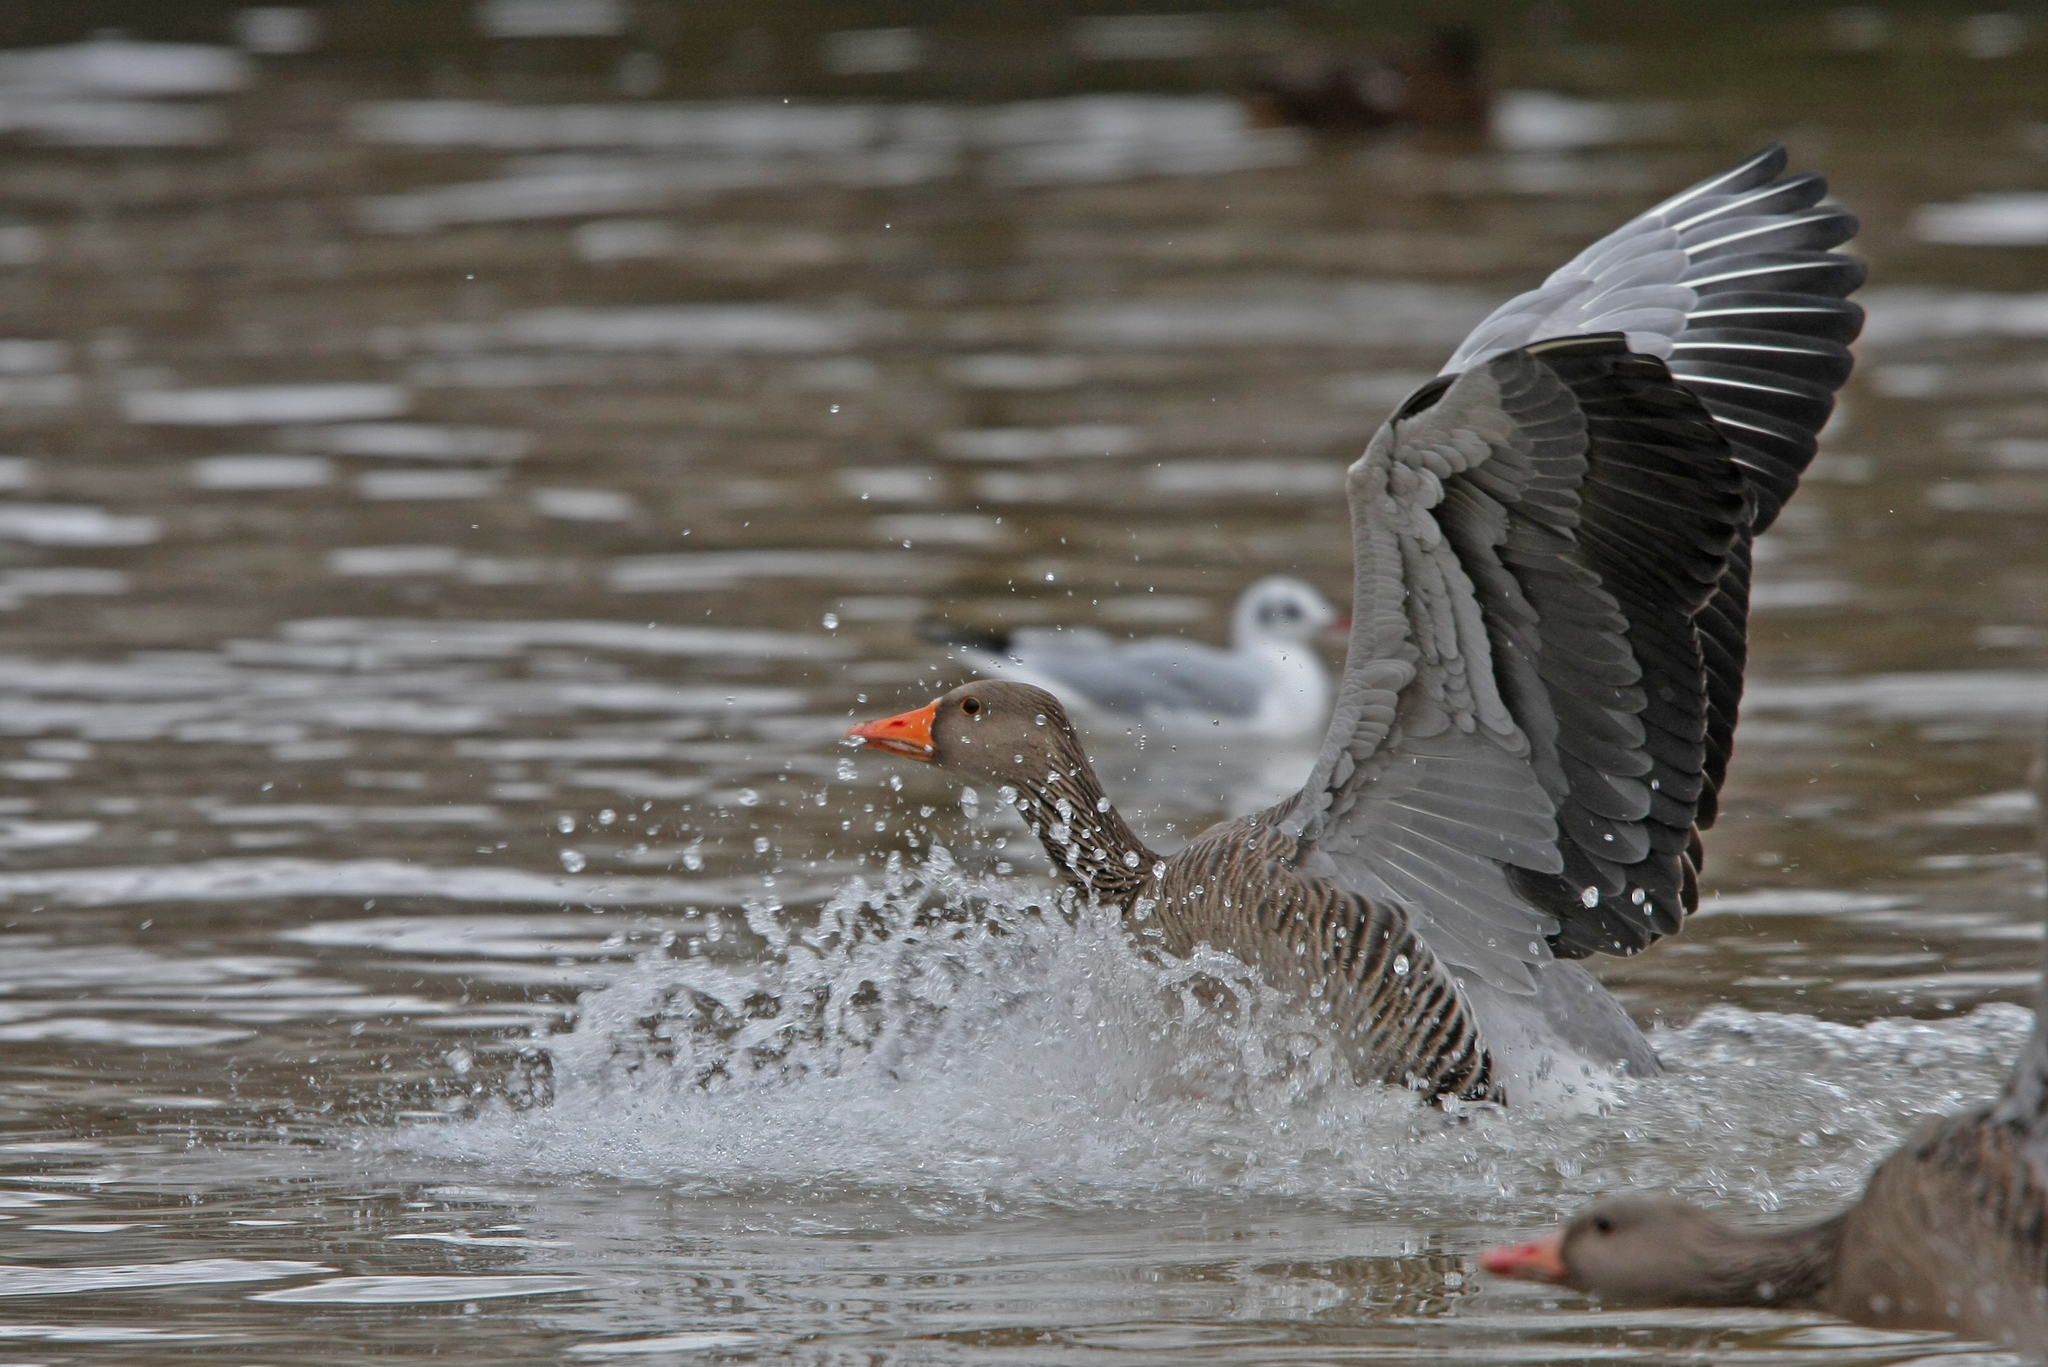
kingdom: Animalia
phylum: Chordata
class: Aves
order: Anseriformes
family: Anatidae
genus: Anser
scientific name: Anser anser
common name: Greylag goose
